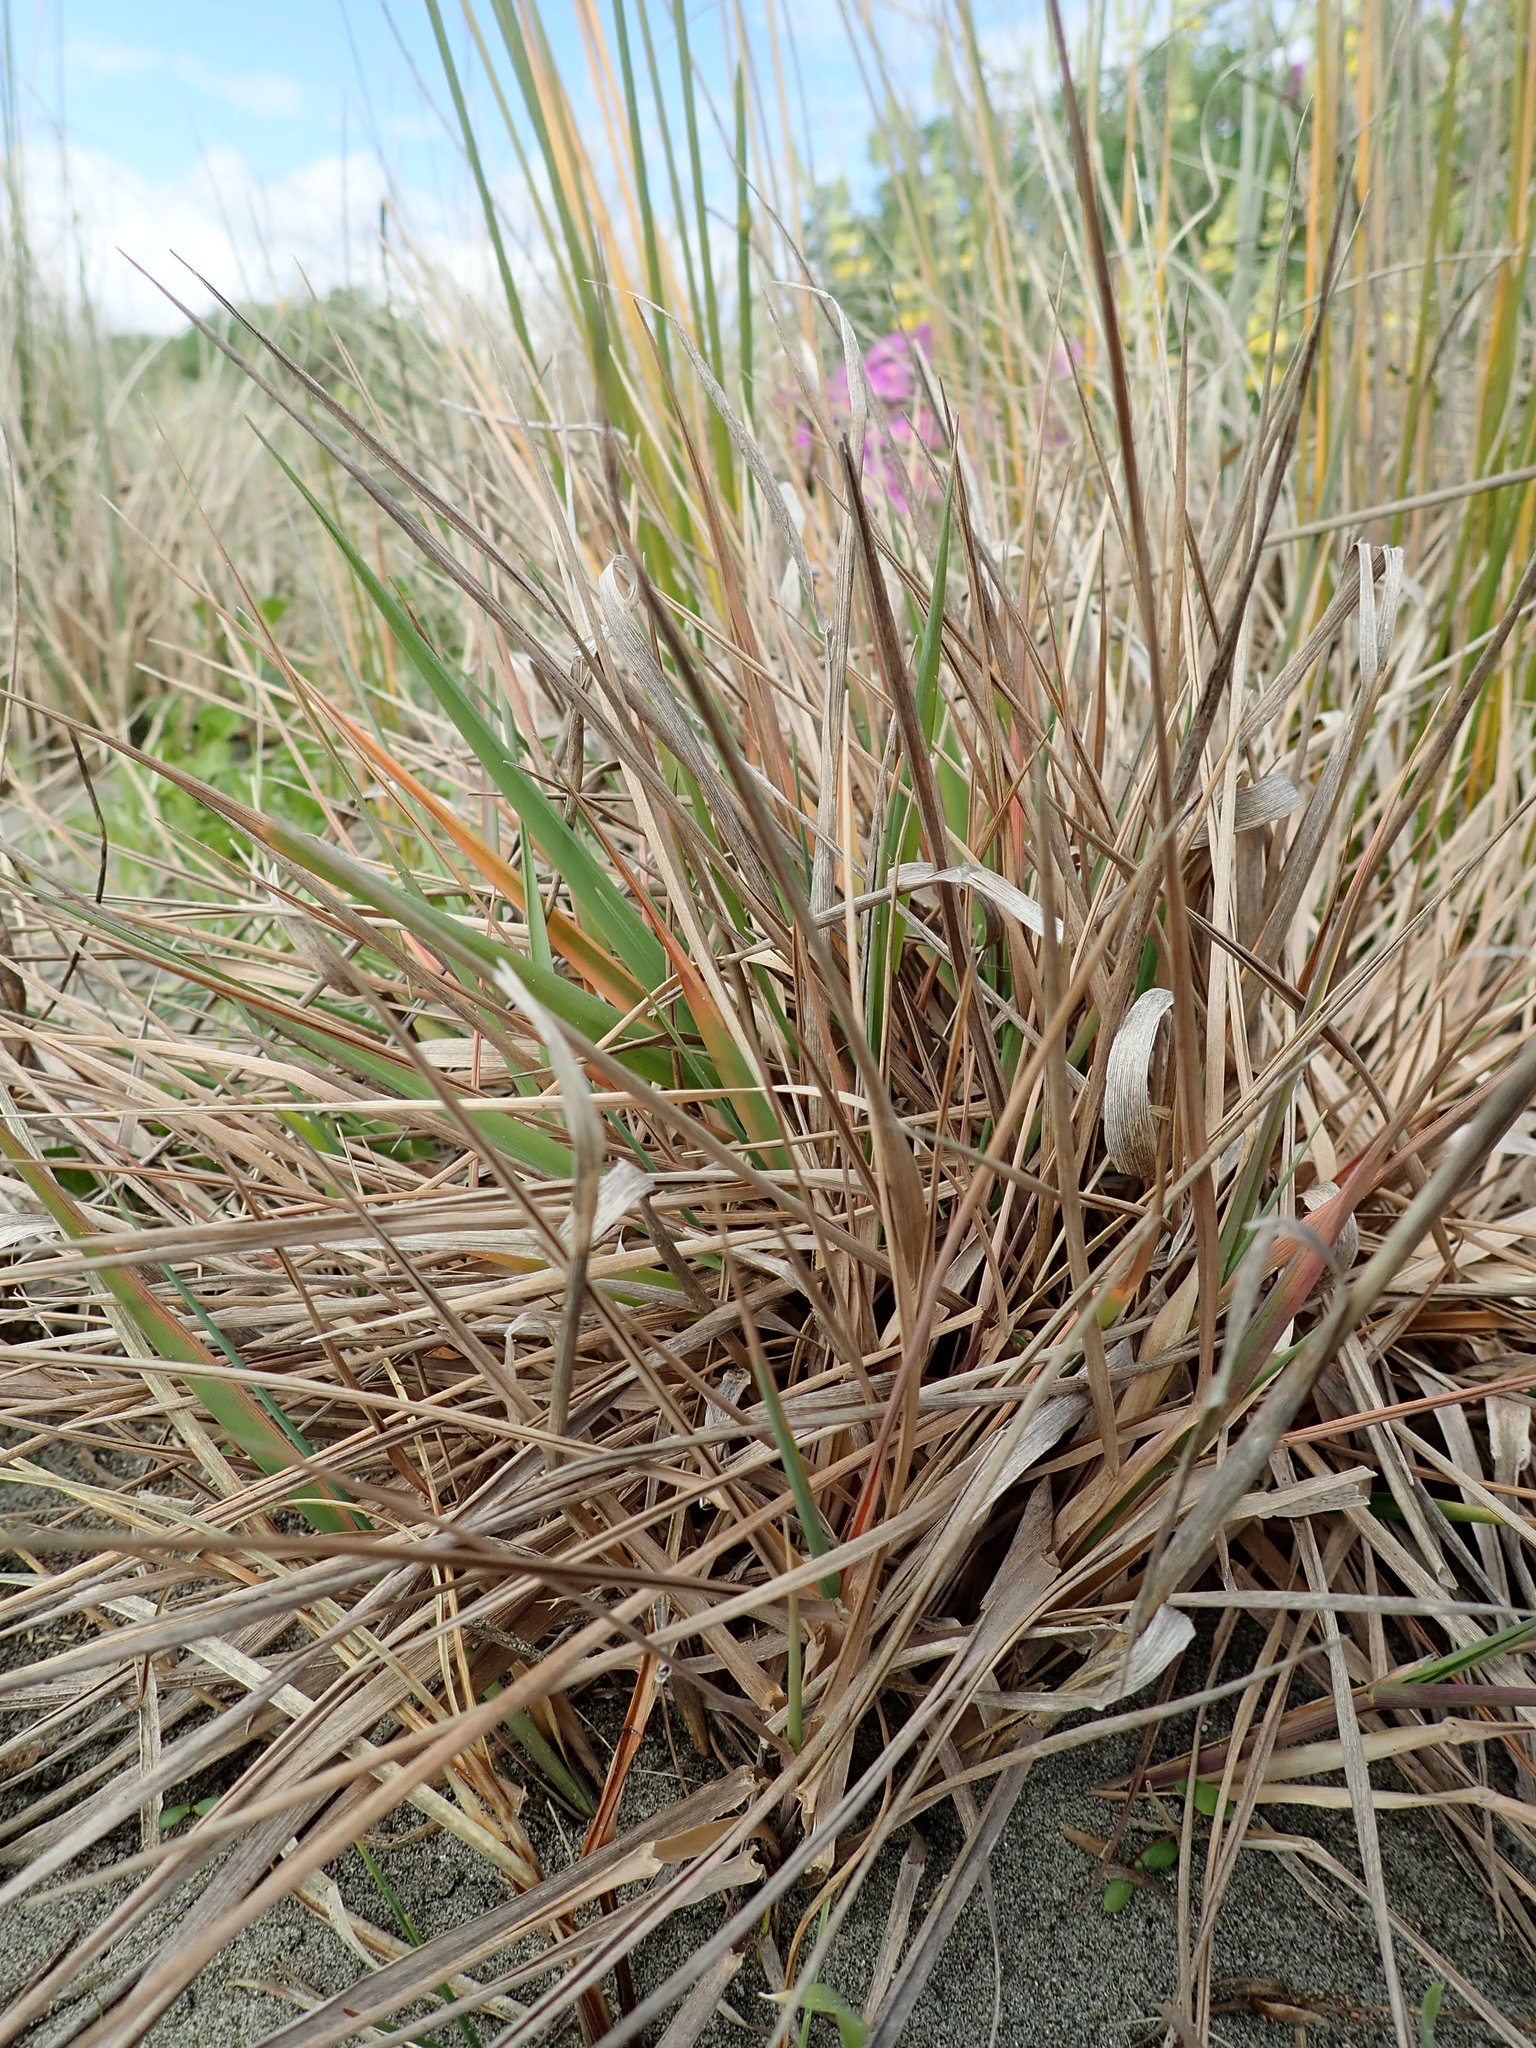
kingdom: Plantae
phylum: Tracheophyta
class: Liliopsida
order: Poales
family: Poaceae
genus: Lachnagrostis
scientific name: Lachnagrostis billardierei
